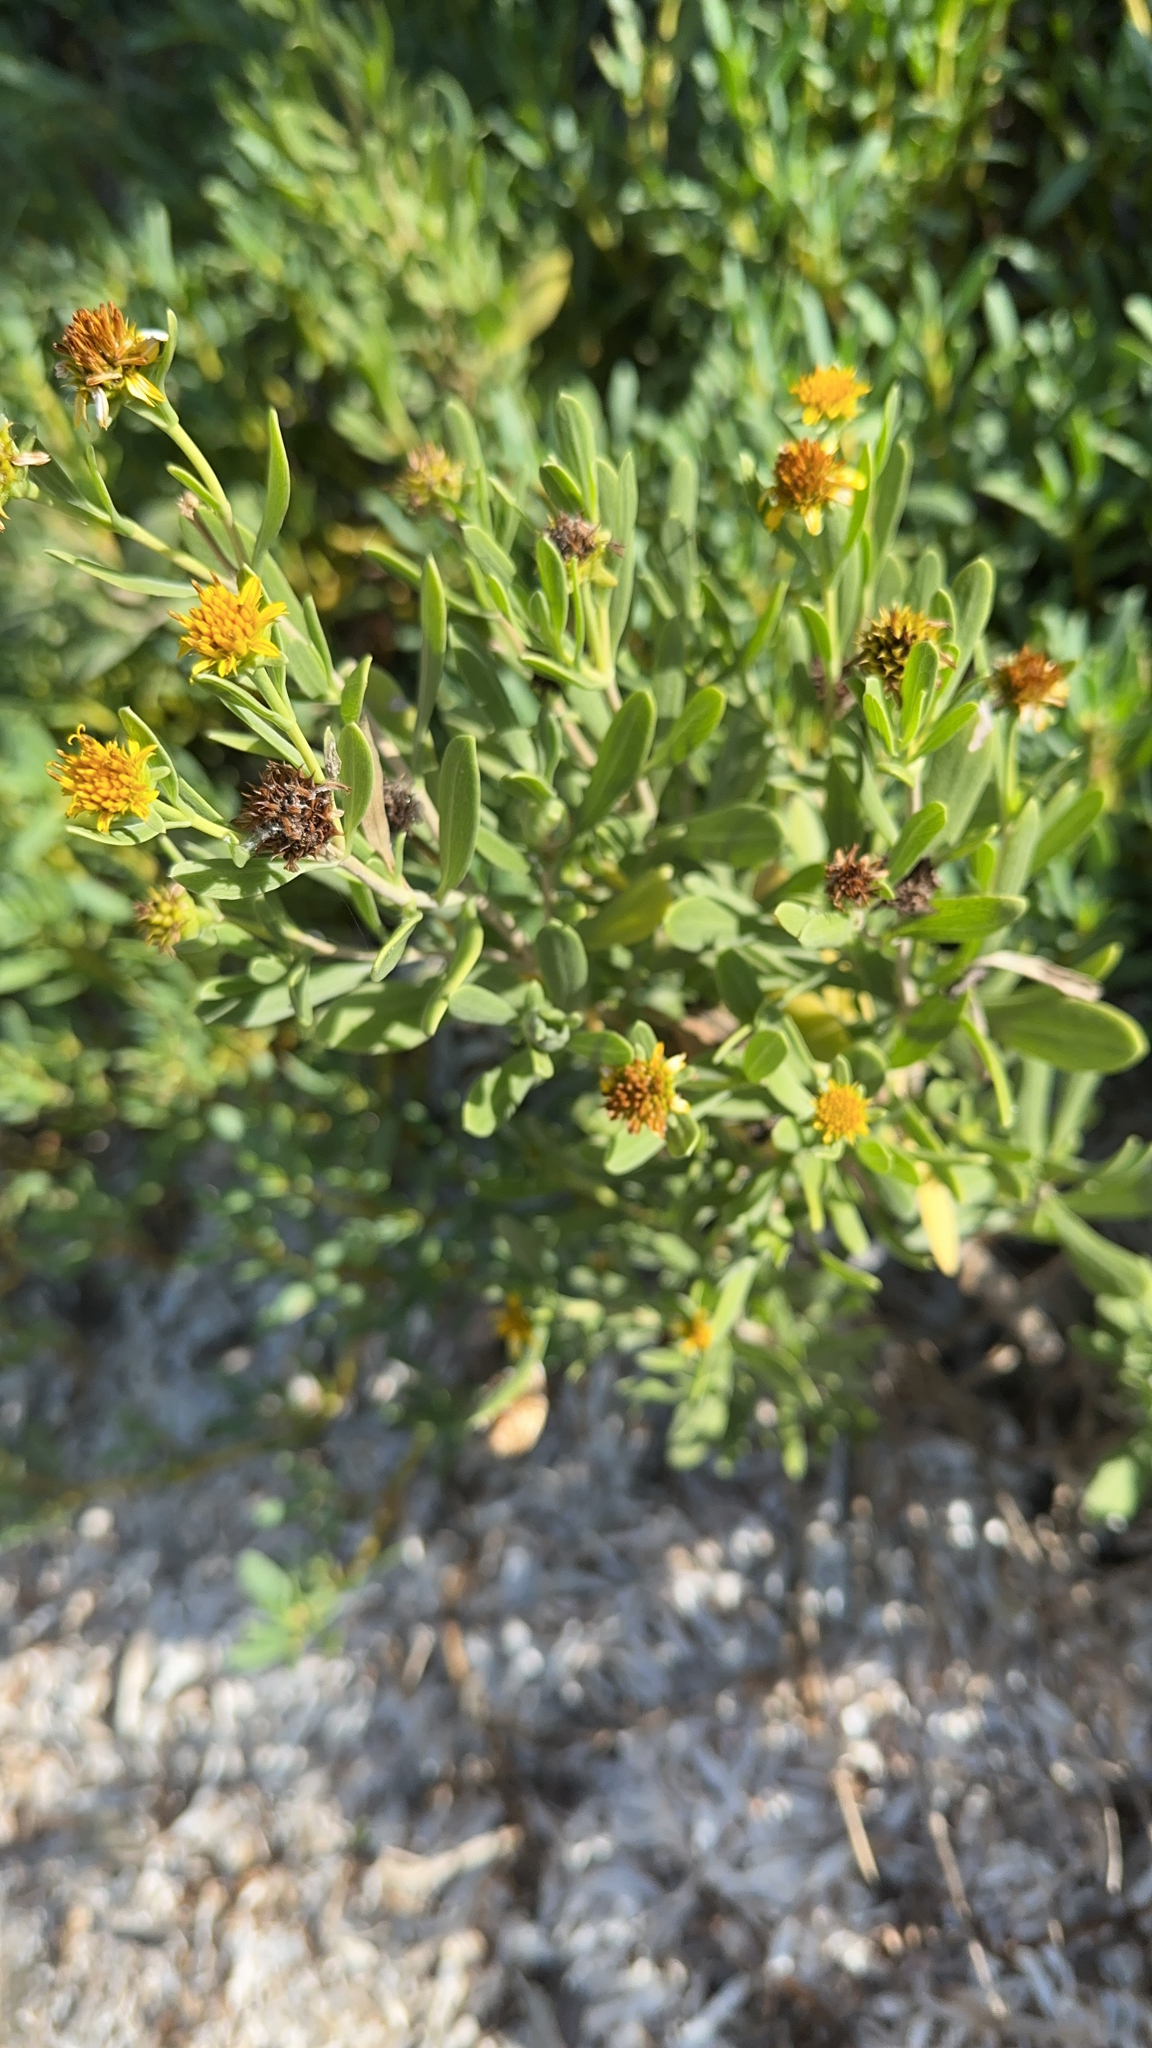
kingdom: Plantae
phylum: Tracheophyta
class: Magnoliopsida
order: Asterales
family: Asteraceae
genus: Borrichia
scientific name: Borrichia frutescens
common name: Sea oxeye
